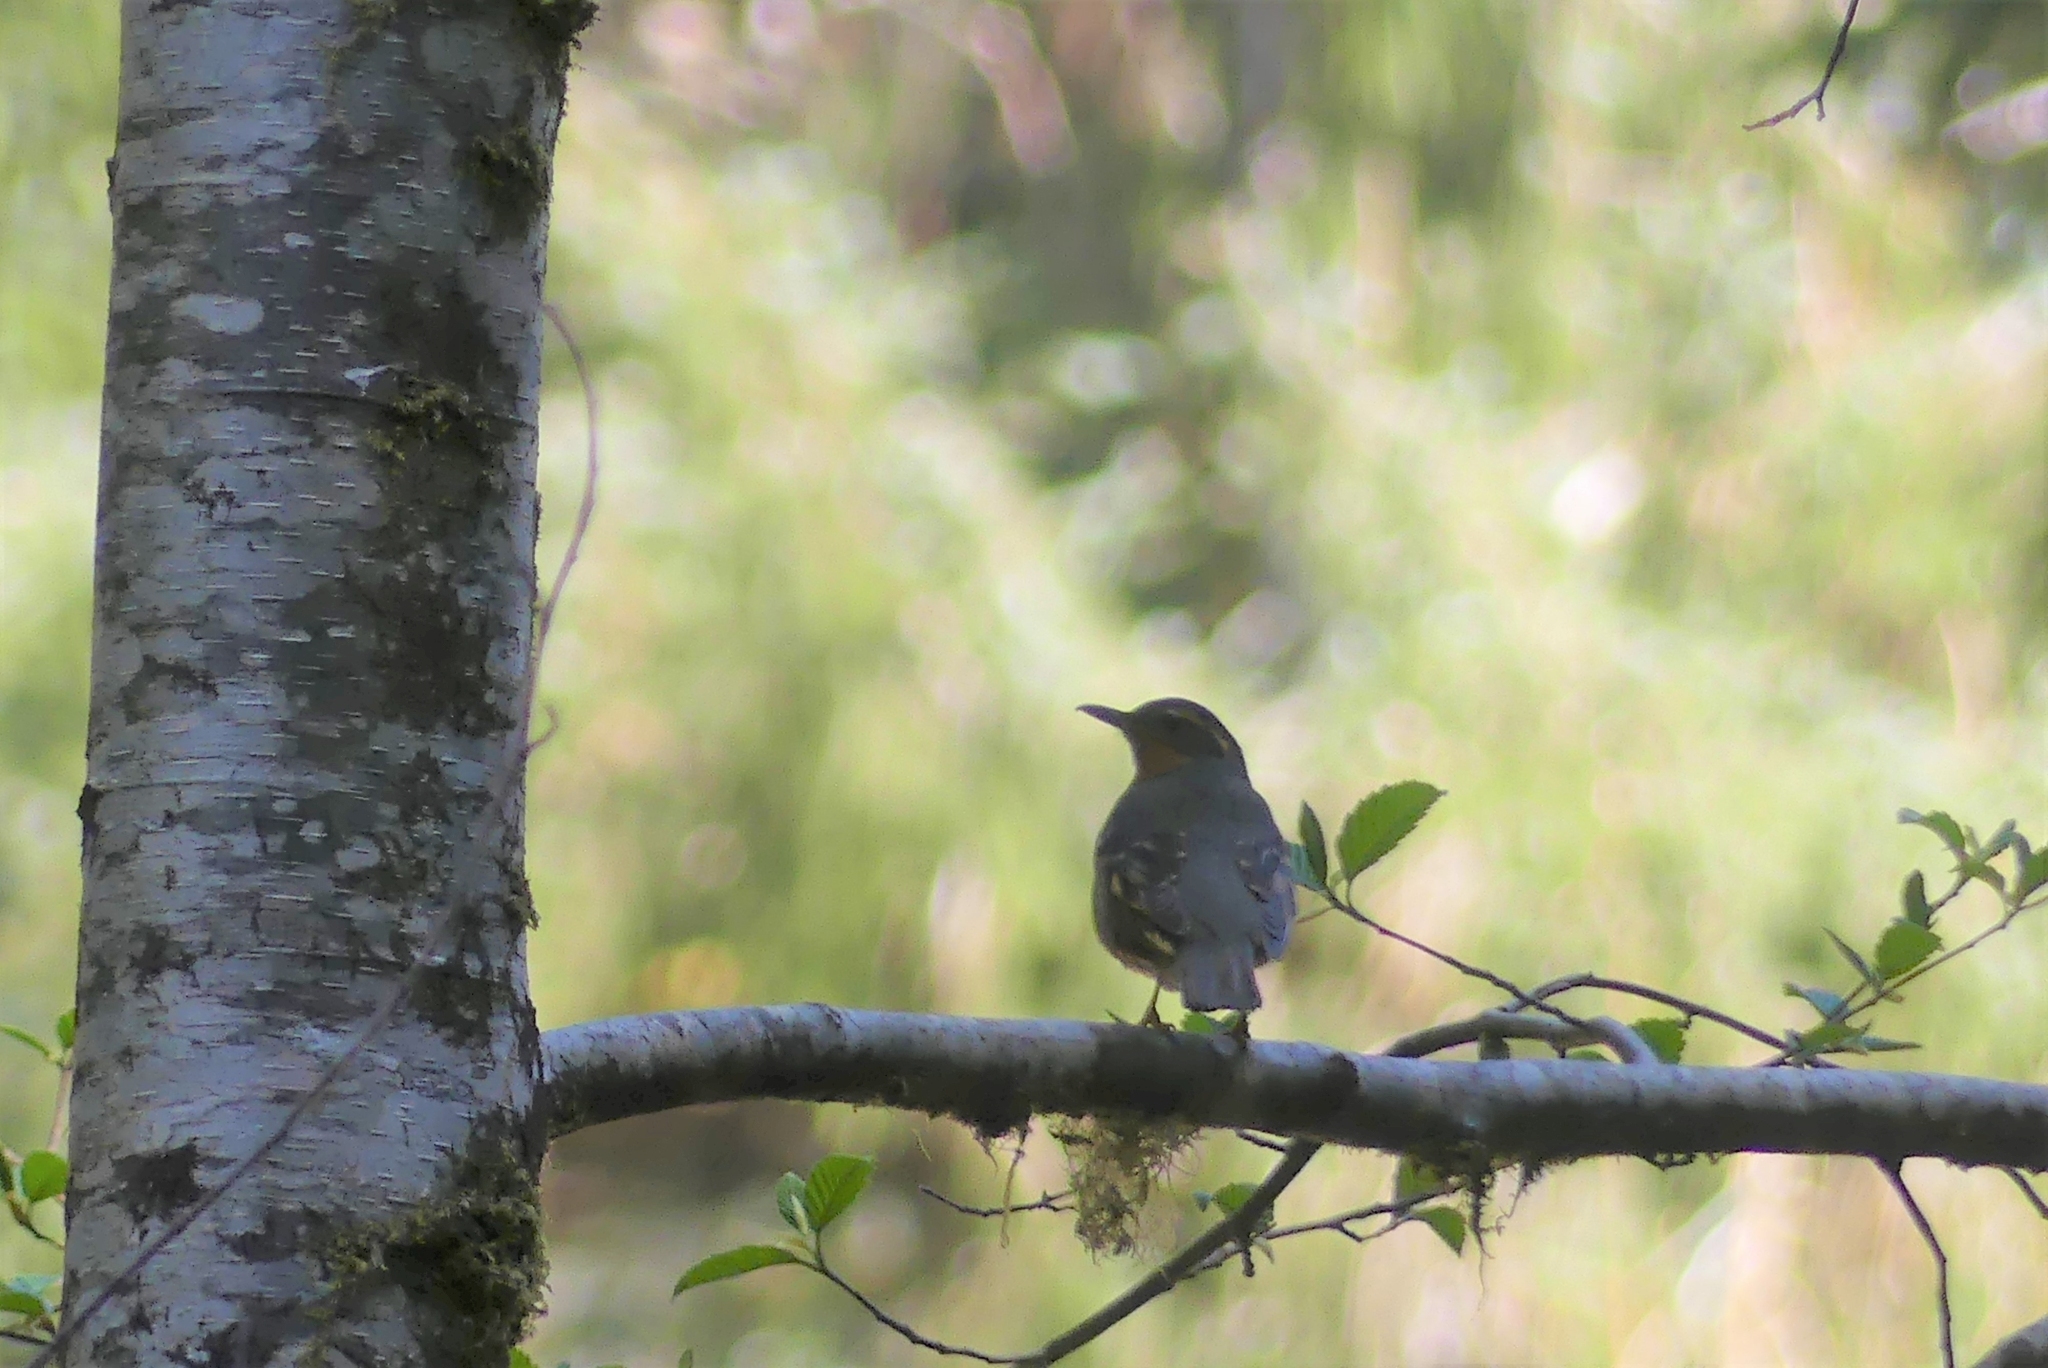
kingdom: Animalia
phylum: Chordata
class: Aves
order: Passeriformes
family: Turdidae
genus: Ixoreus
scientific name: Ixoreus naevius
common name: Varied thrush
